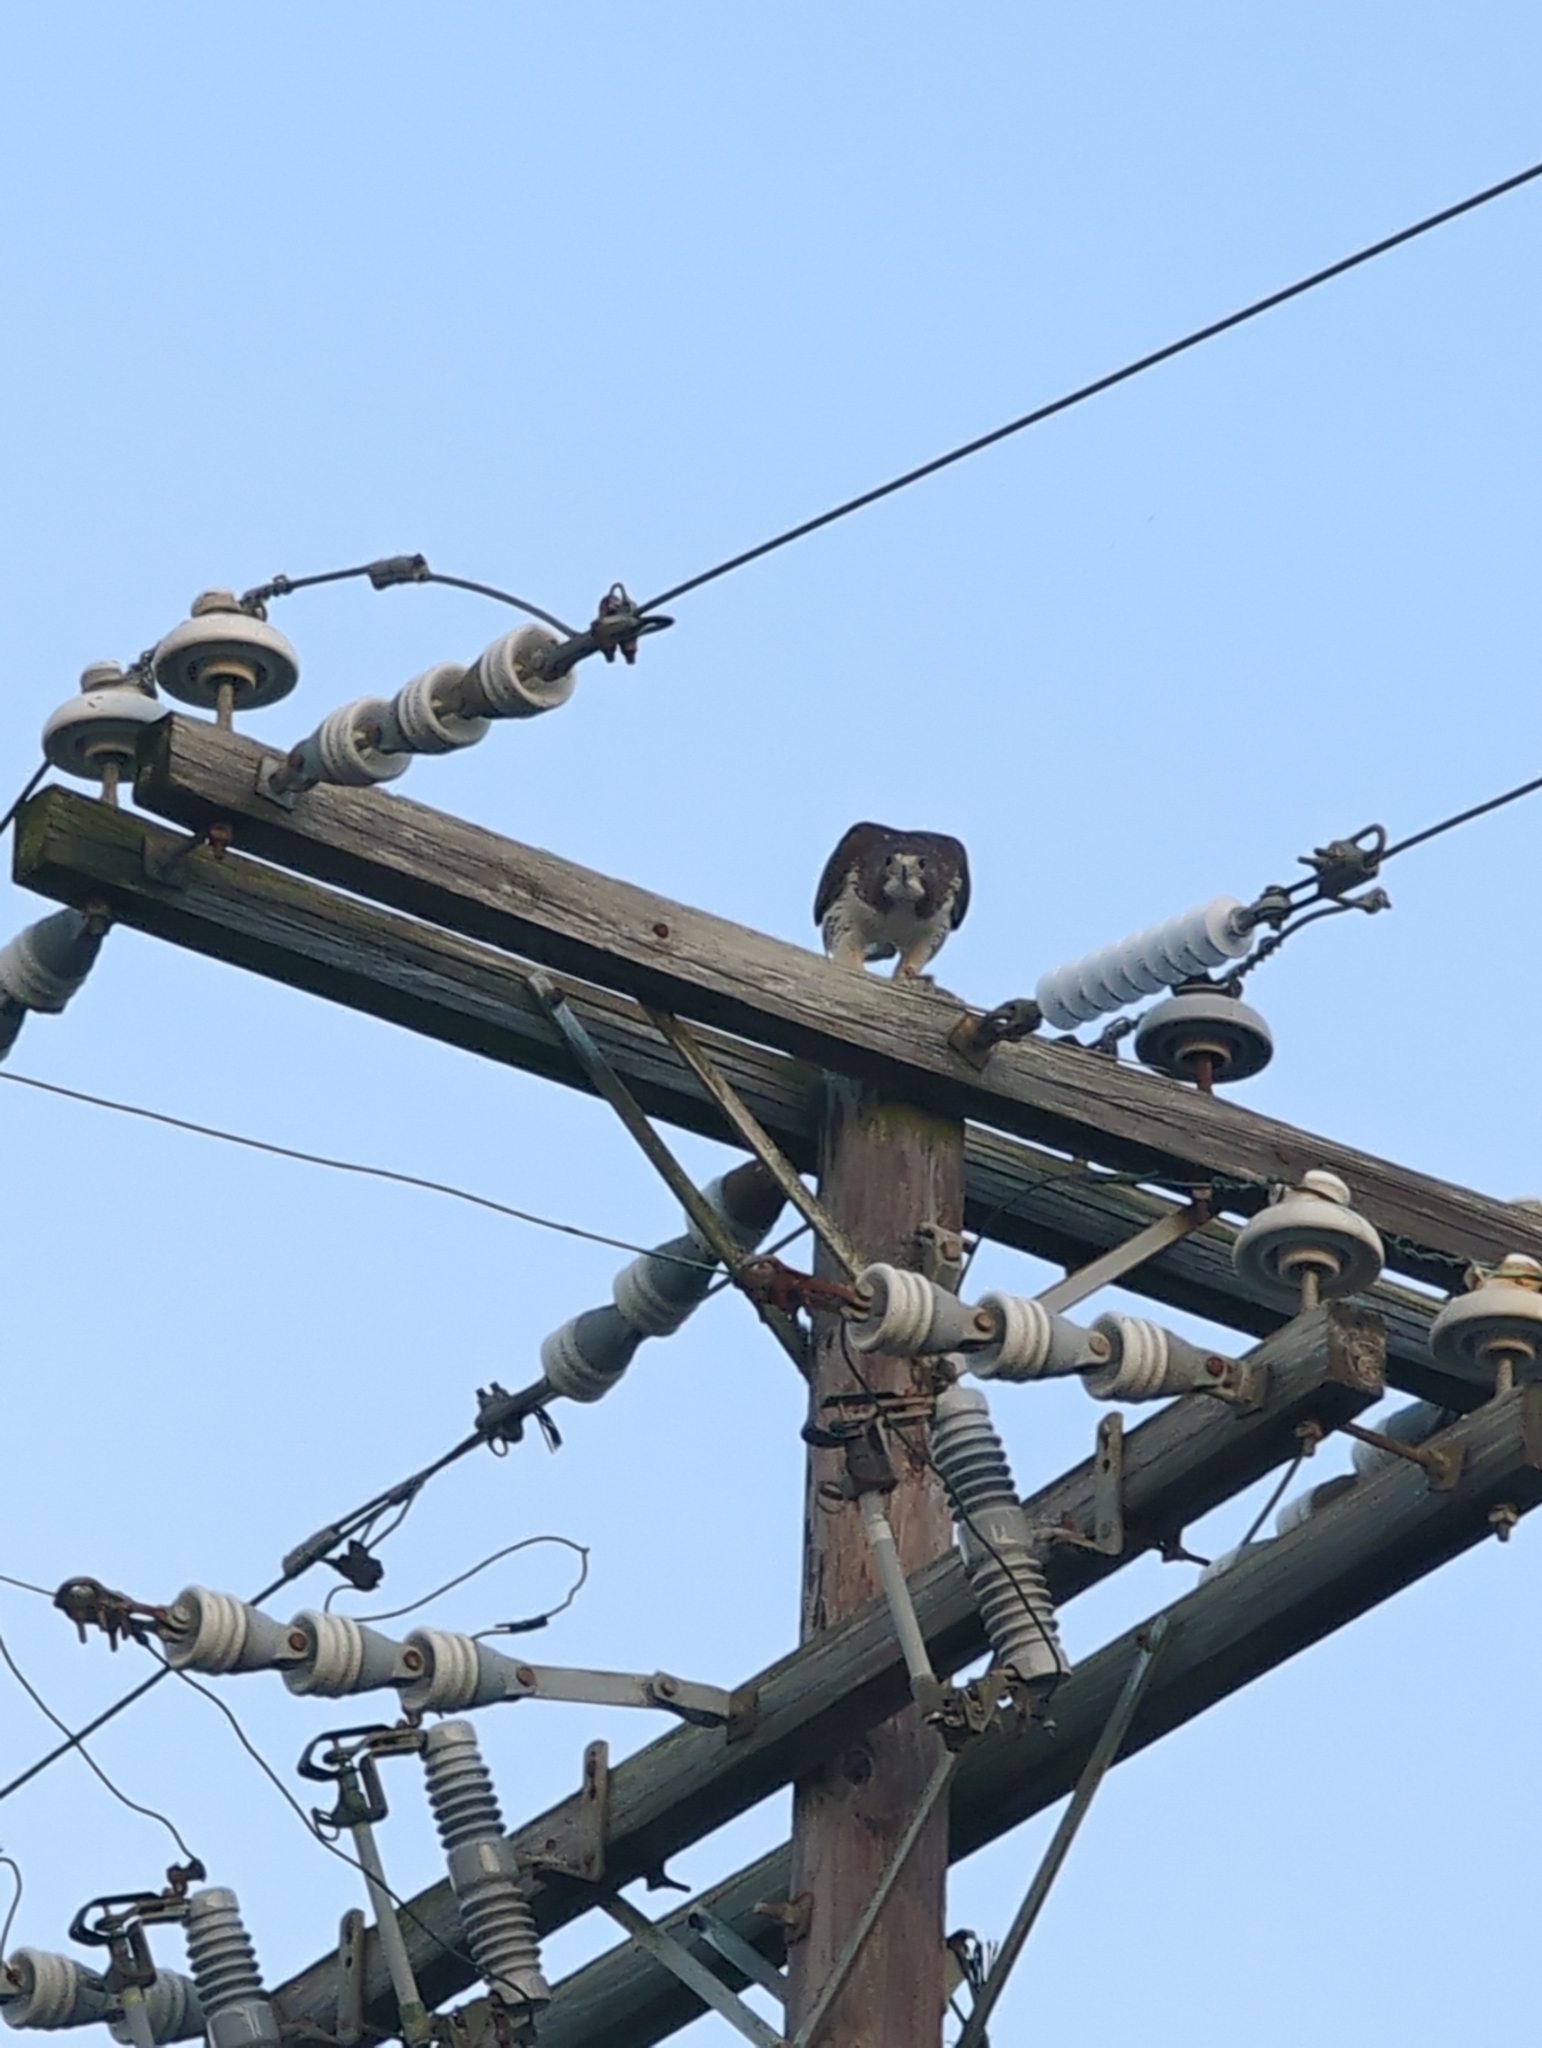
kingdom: Animalia
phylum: Chordata
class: Aves
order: Accipitriformes
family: Accipitridae
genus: Buteo
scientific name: Buteo jamaicensis
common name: Red-tailed hawk
